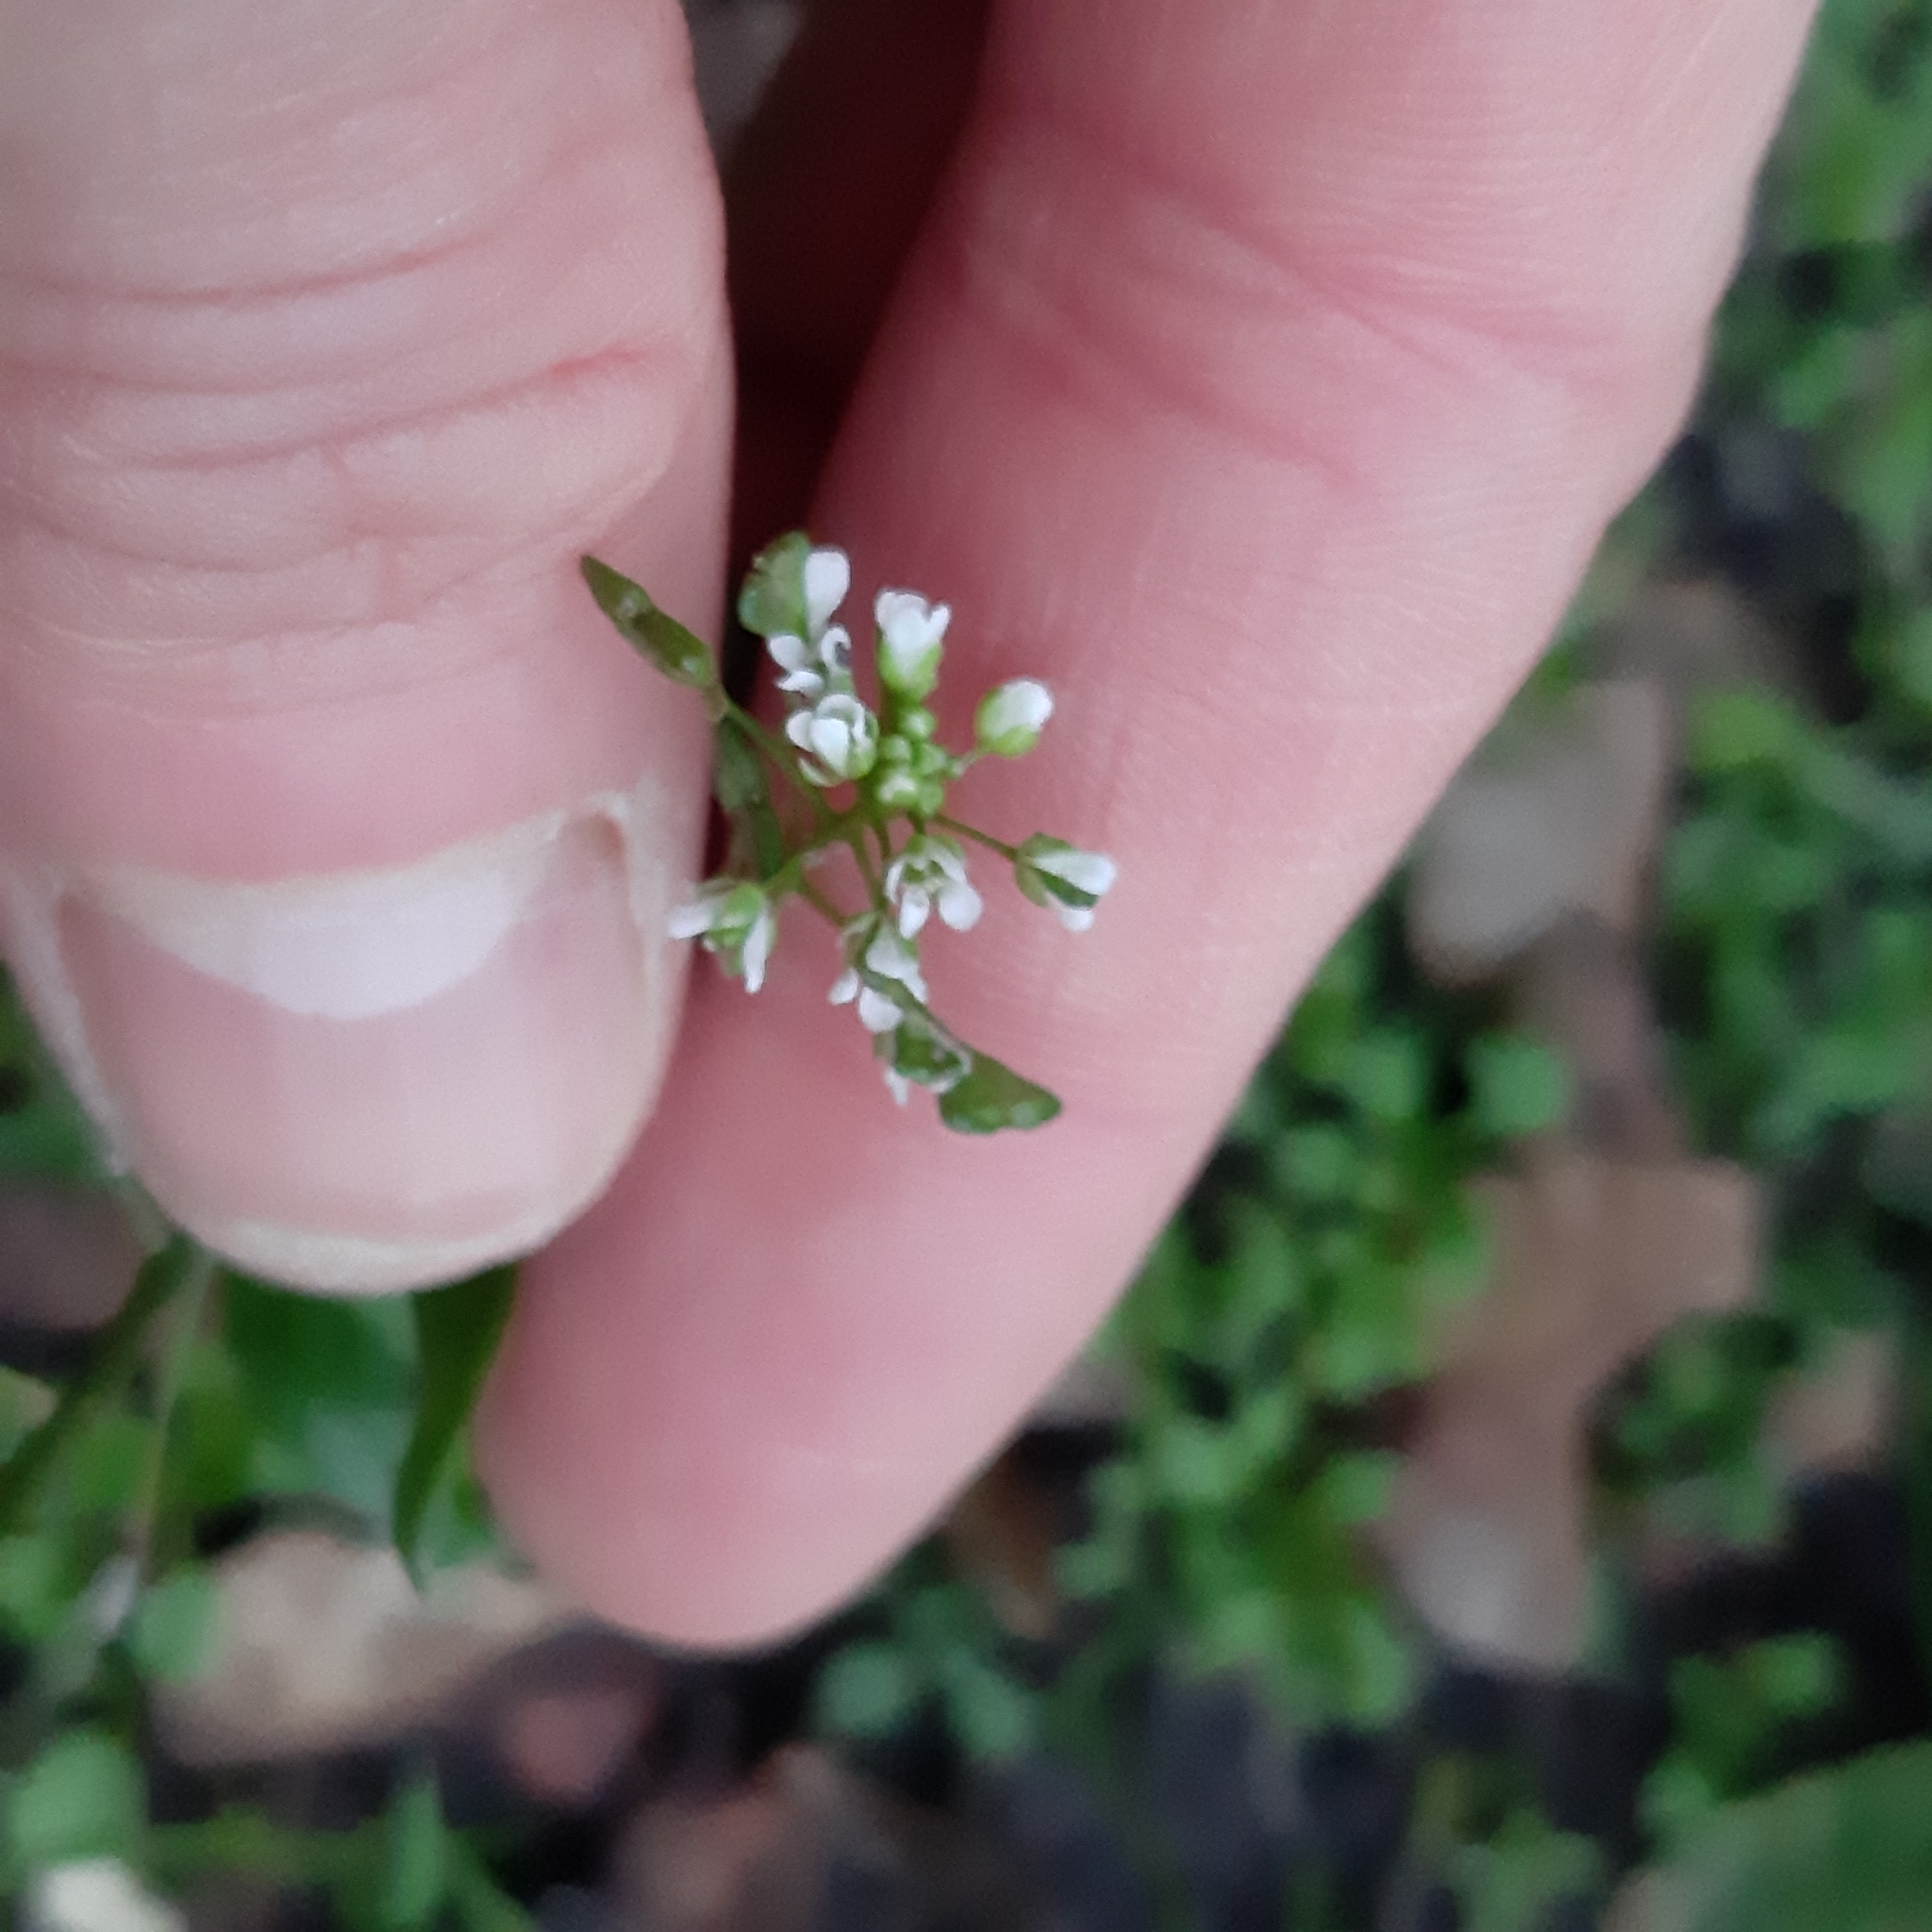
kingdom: Plantae
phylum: Tracheophyta
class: Magnoliopsida
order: Brassicales
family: Brassicaceae
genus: Capsella
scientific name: Capsella bursa-pastoris
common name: Shepherd's purse
